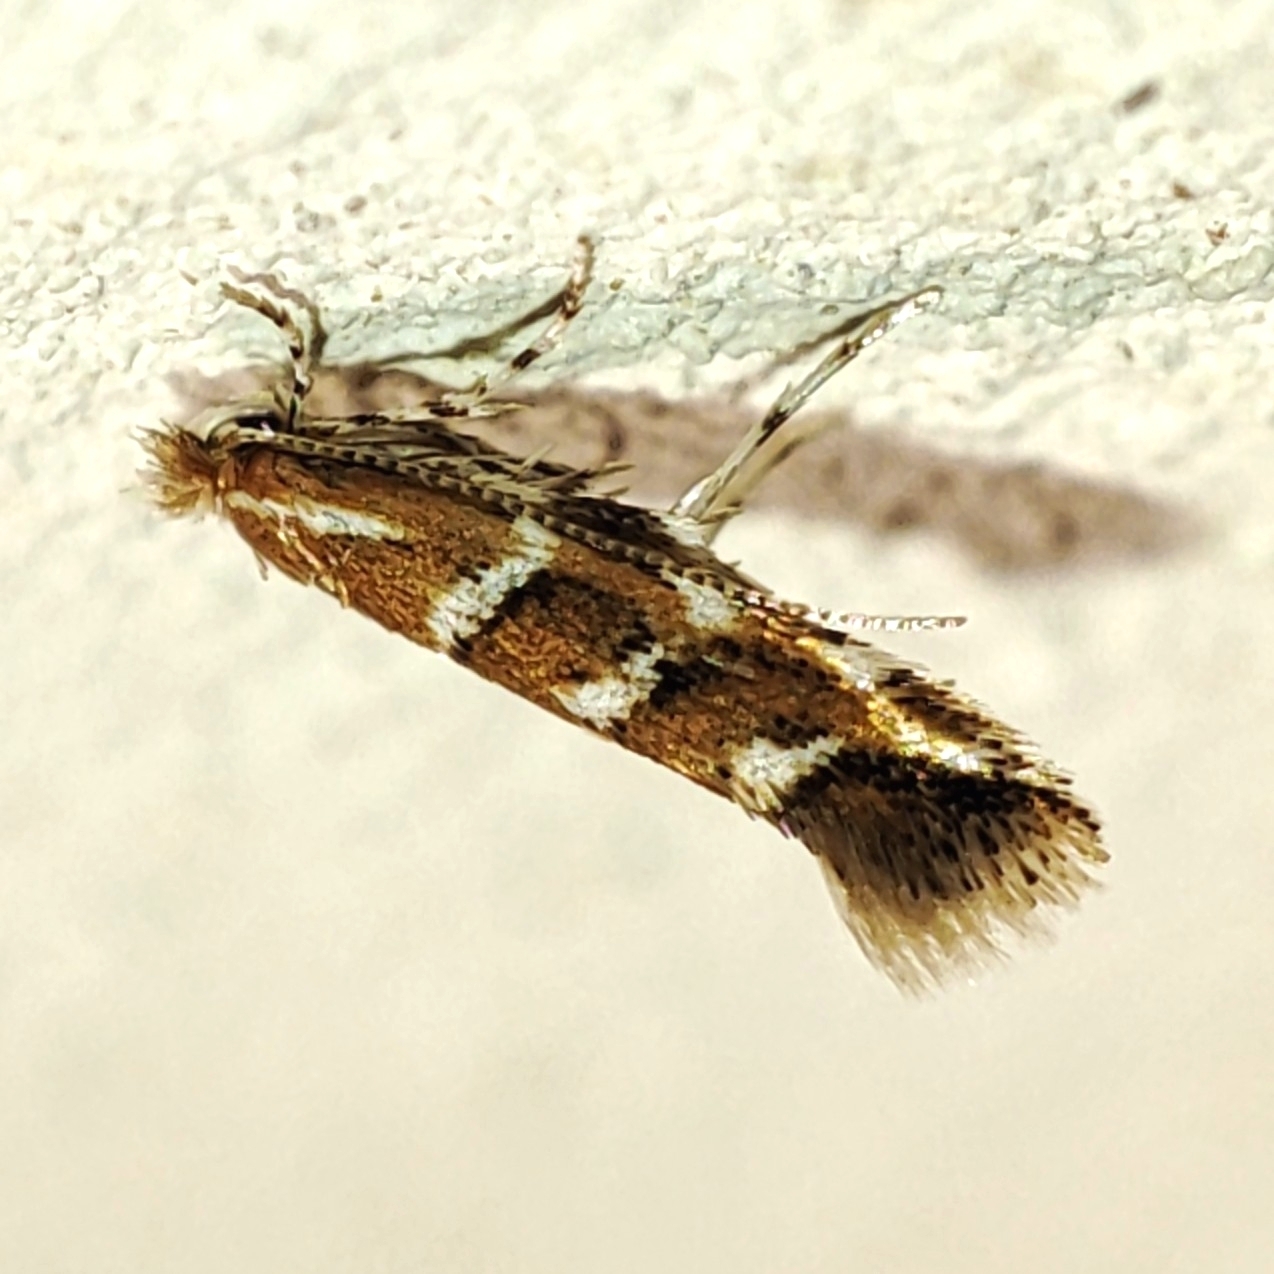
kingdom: Animalia
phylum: Arthropoda
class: Insecta
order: Lepidoptera
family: Gracillariidae
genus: Cameraria
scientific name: Cameraria ohridella
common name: Horse-chestnut leaf-miner
